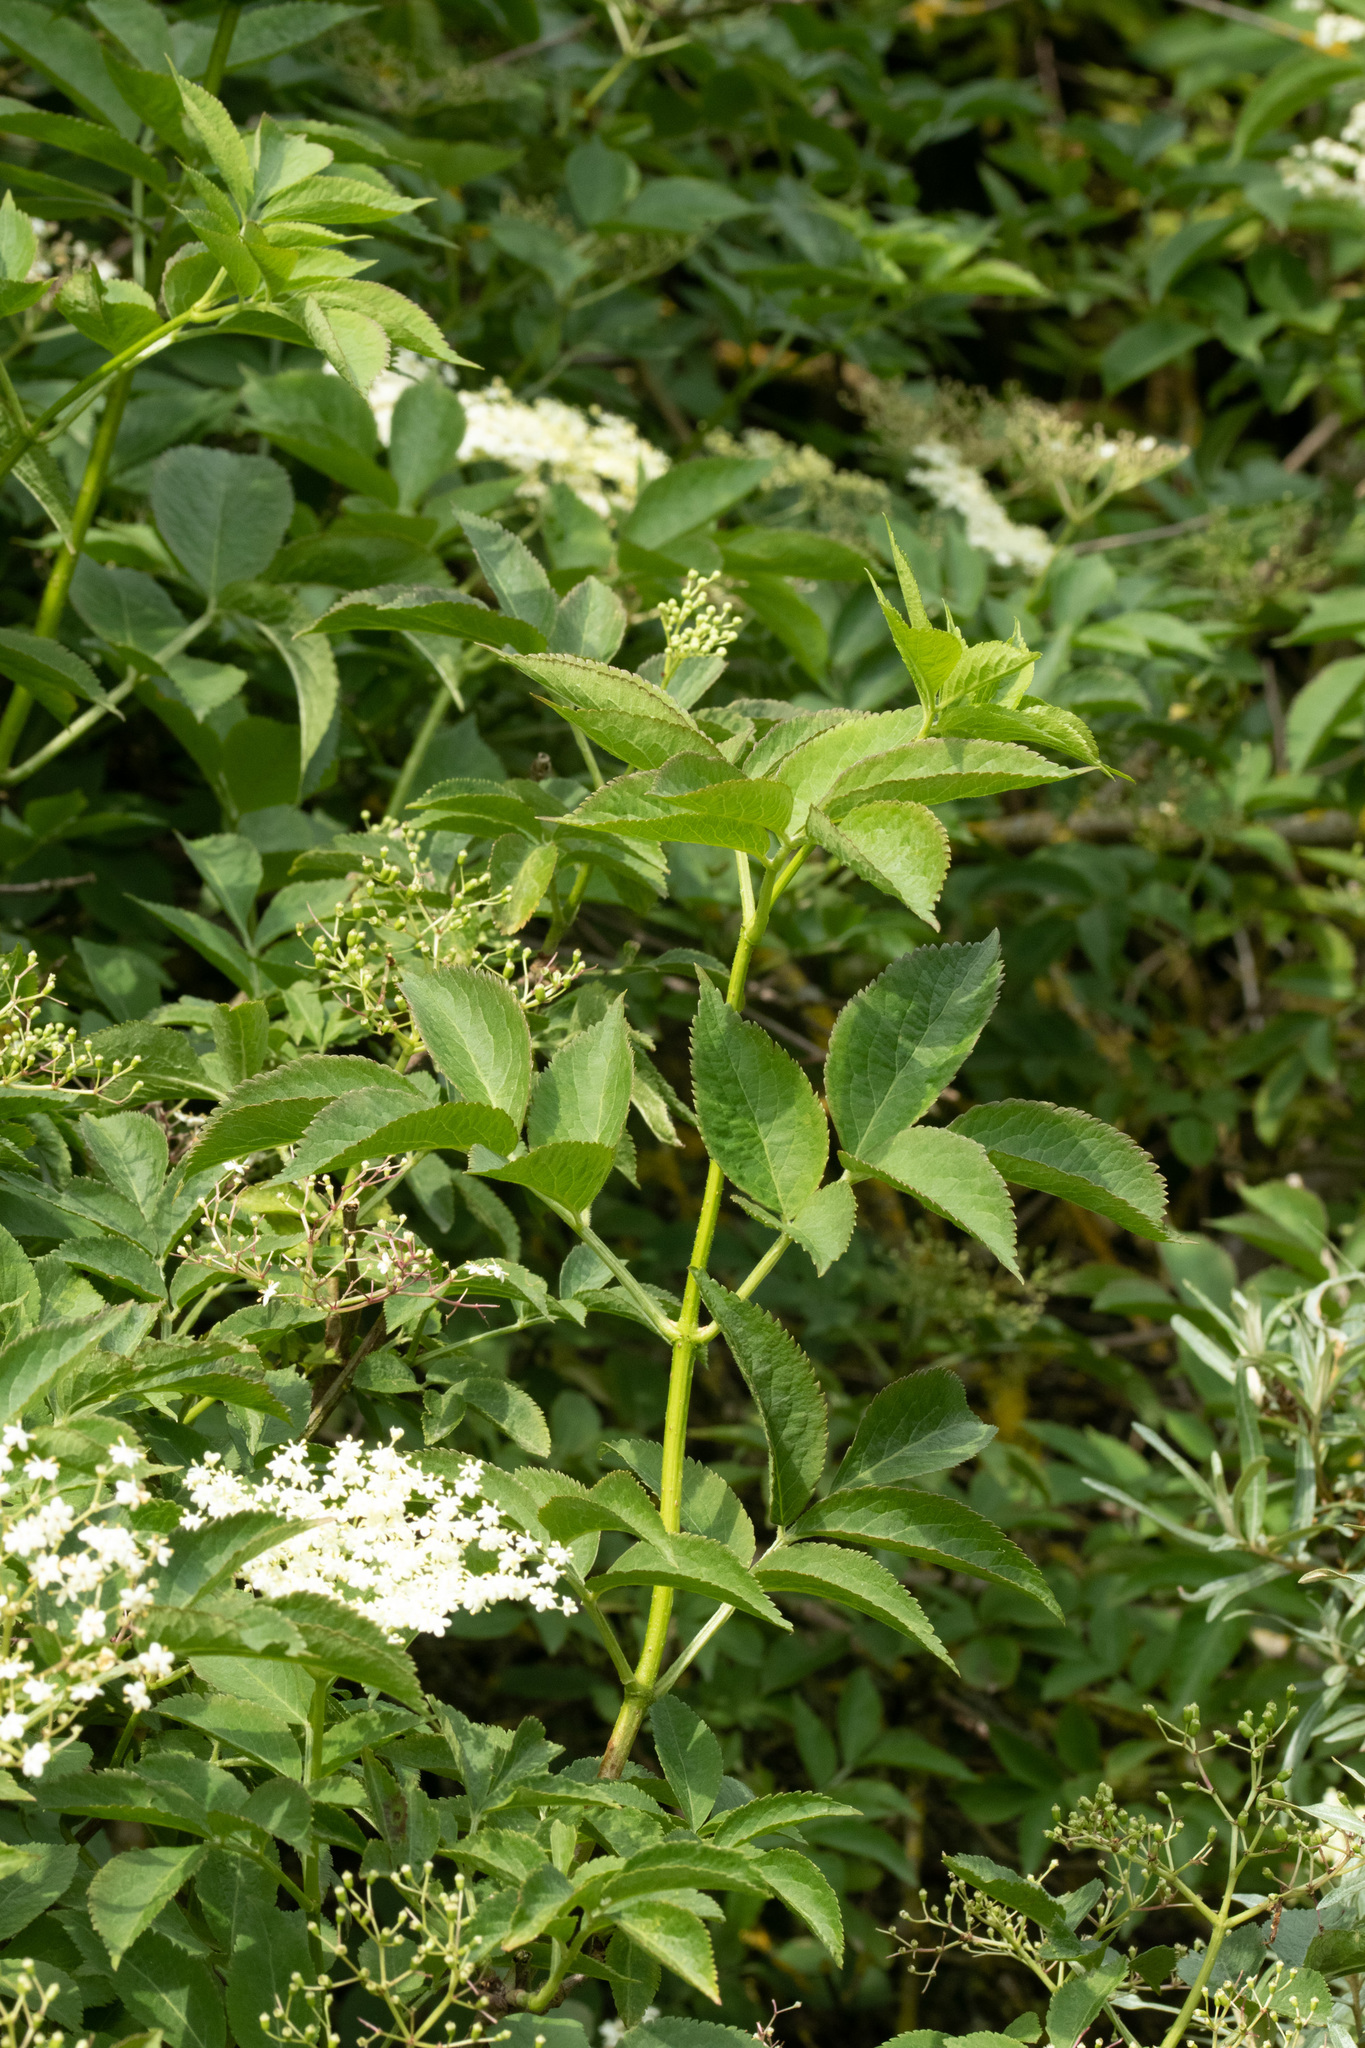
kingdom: Plantae
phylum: Tracheophyta
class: Magnoliopsida
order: Dipsacales
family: Viburnaceae
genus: Sambucus
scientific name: Sambucus nigra
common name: Elder
